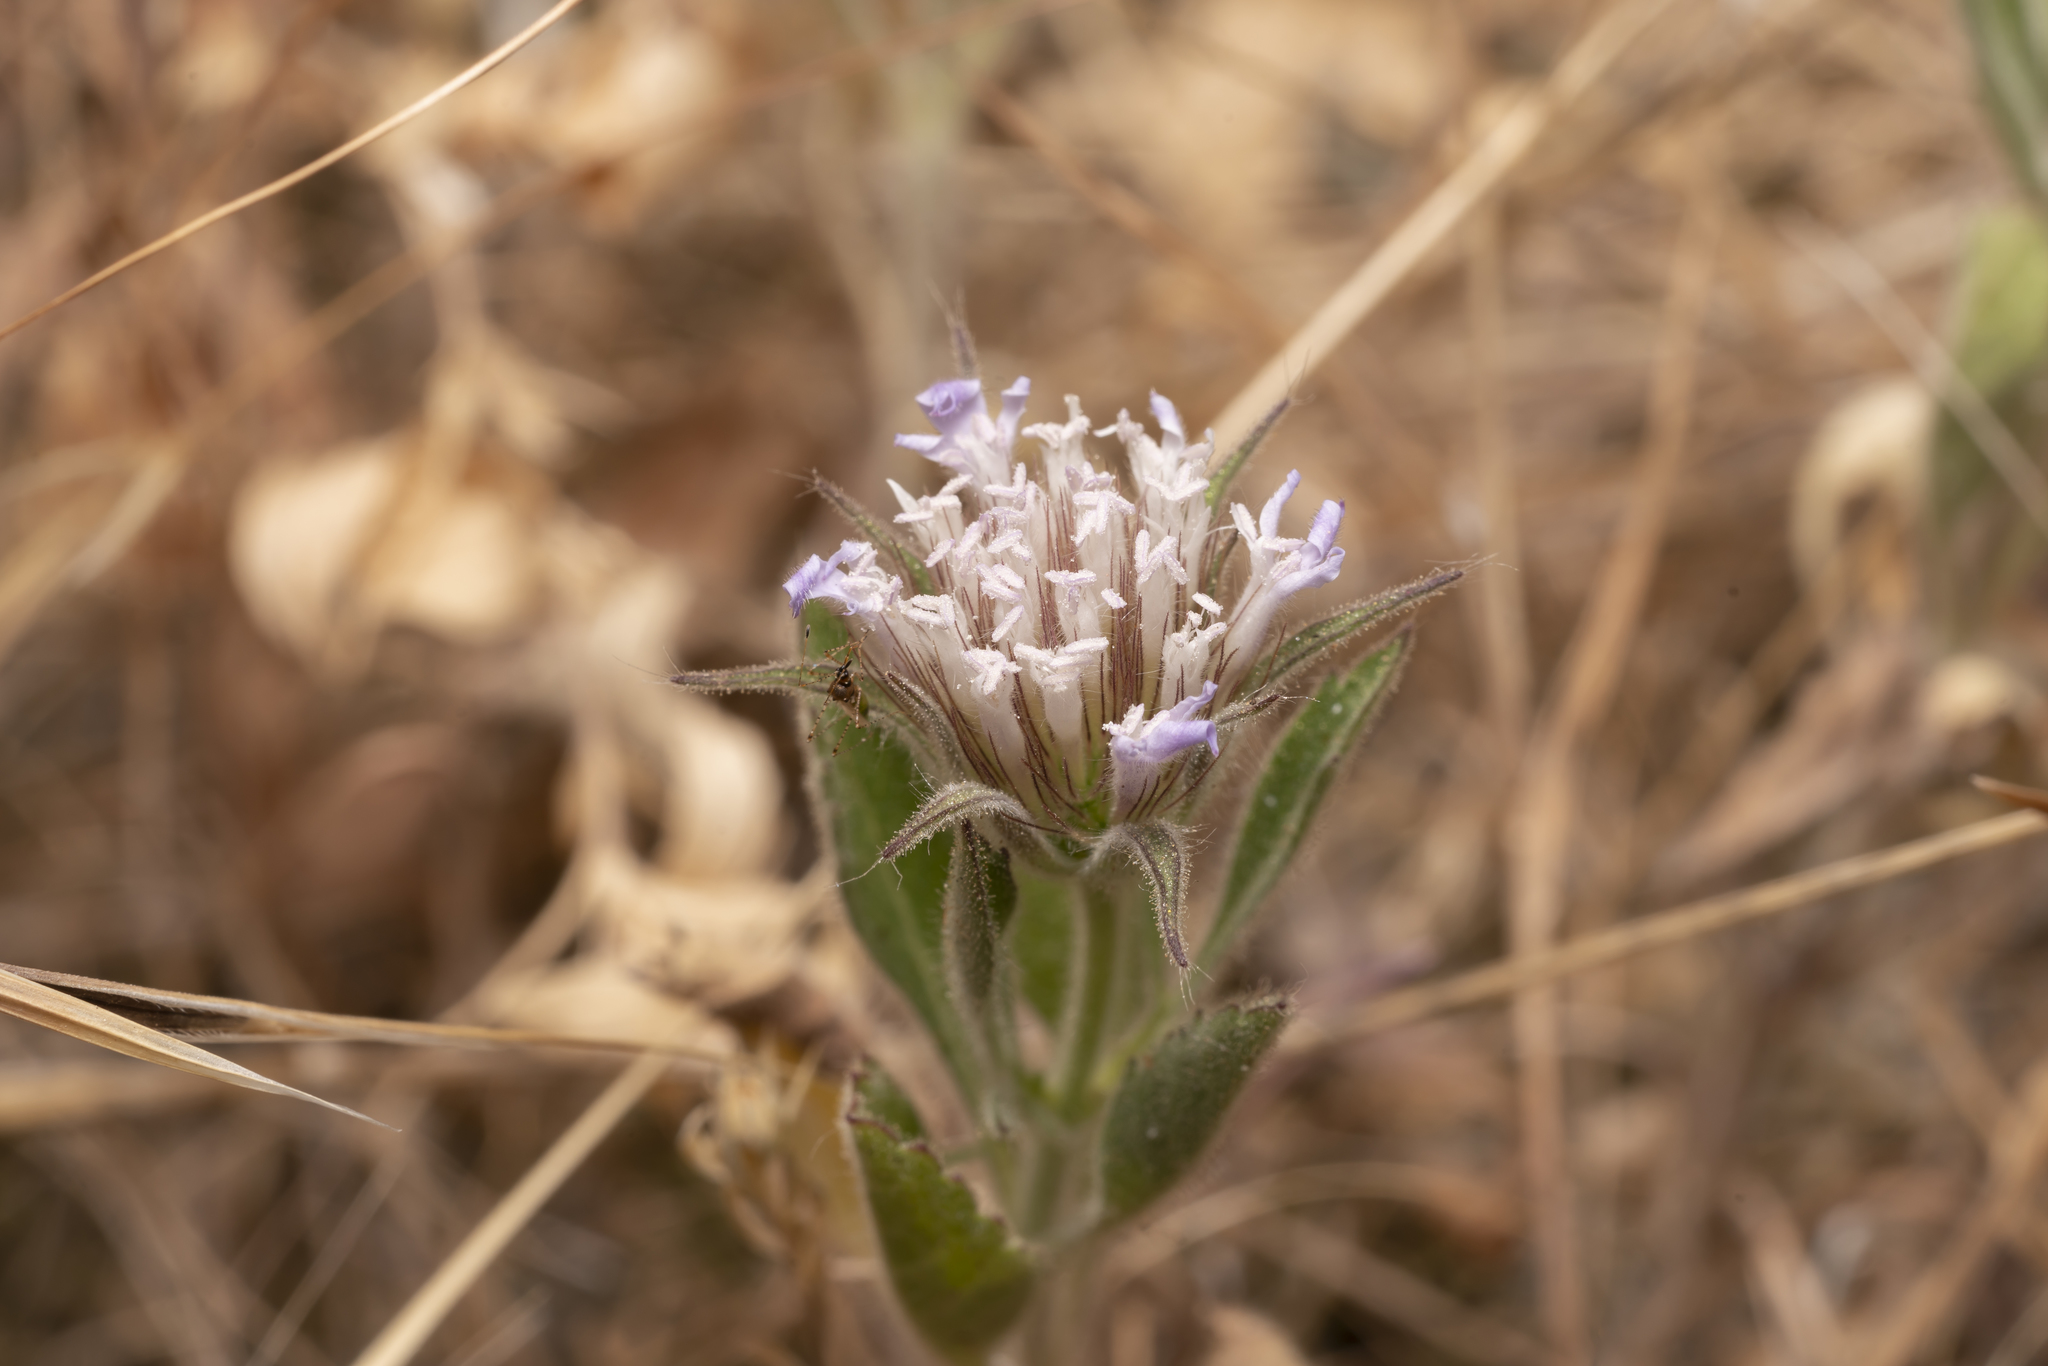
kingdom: Plantae
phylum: Tracheophyta
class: Magnoliopsida
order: Dipsacales
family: Caprifoliaceae
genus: Pterocephalus
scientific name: Pterocephalus plumosus
